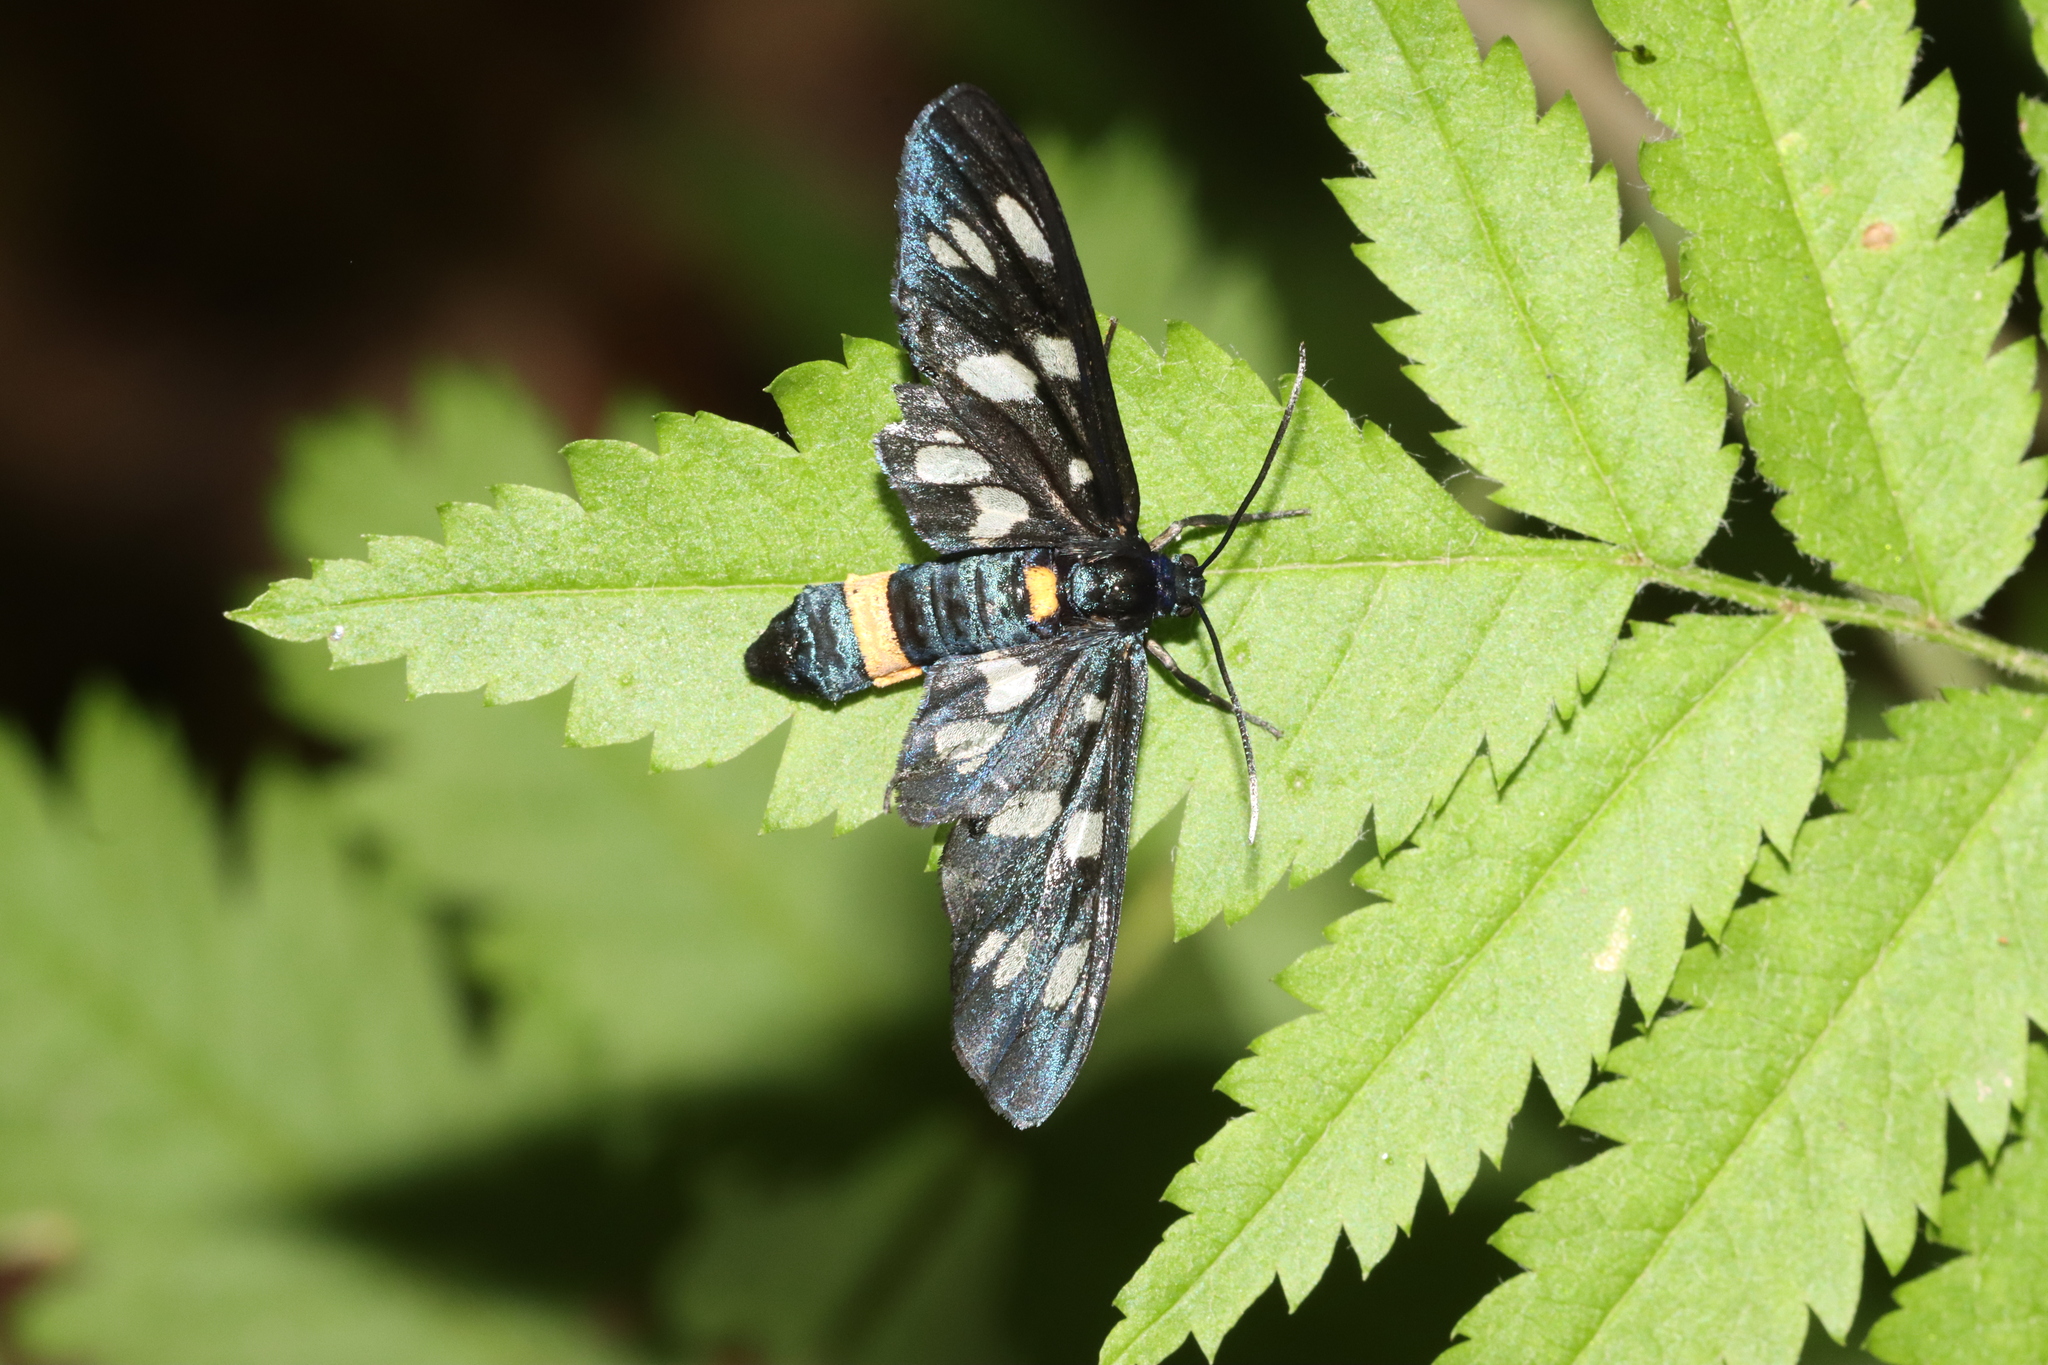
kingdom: Animalia
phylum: Arthropoda
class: Insecta
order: Lepidoptera
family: Erebidae
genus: Amata
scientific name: Amata phegea
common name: Nine-spotted
